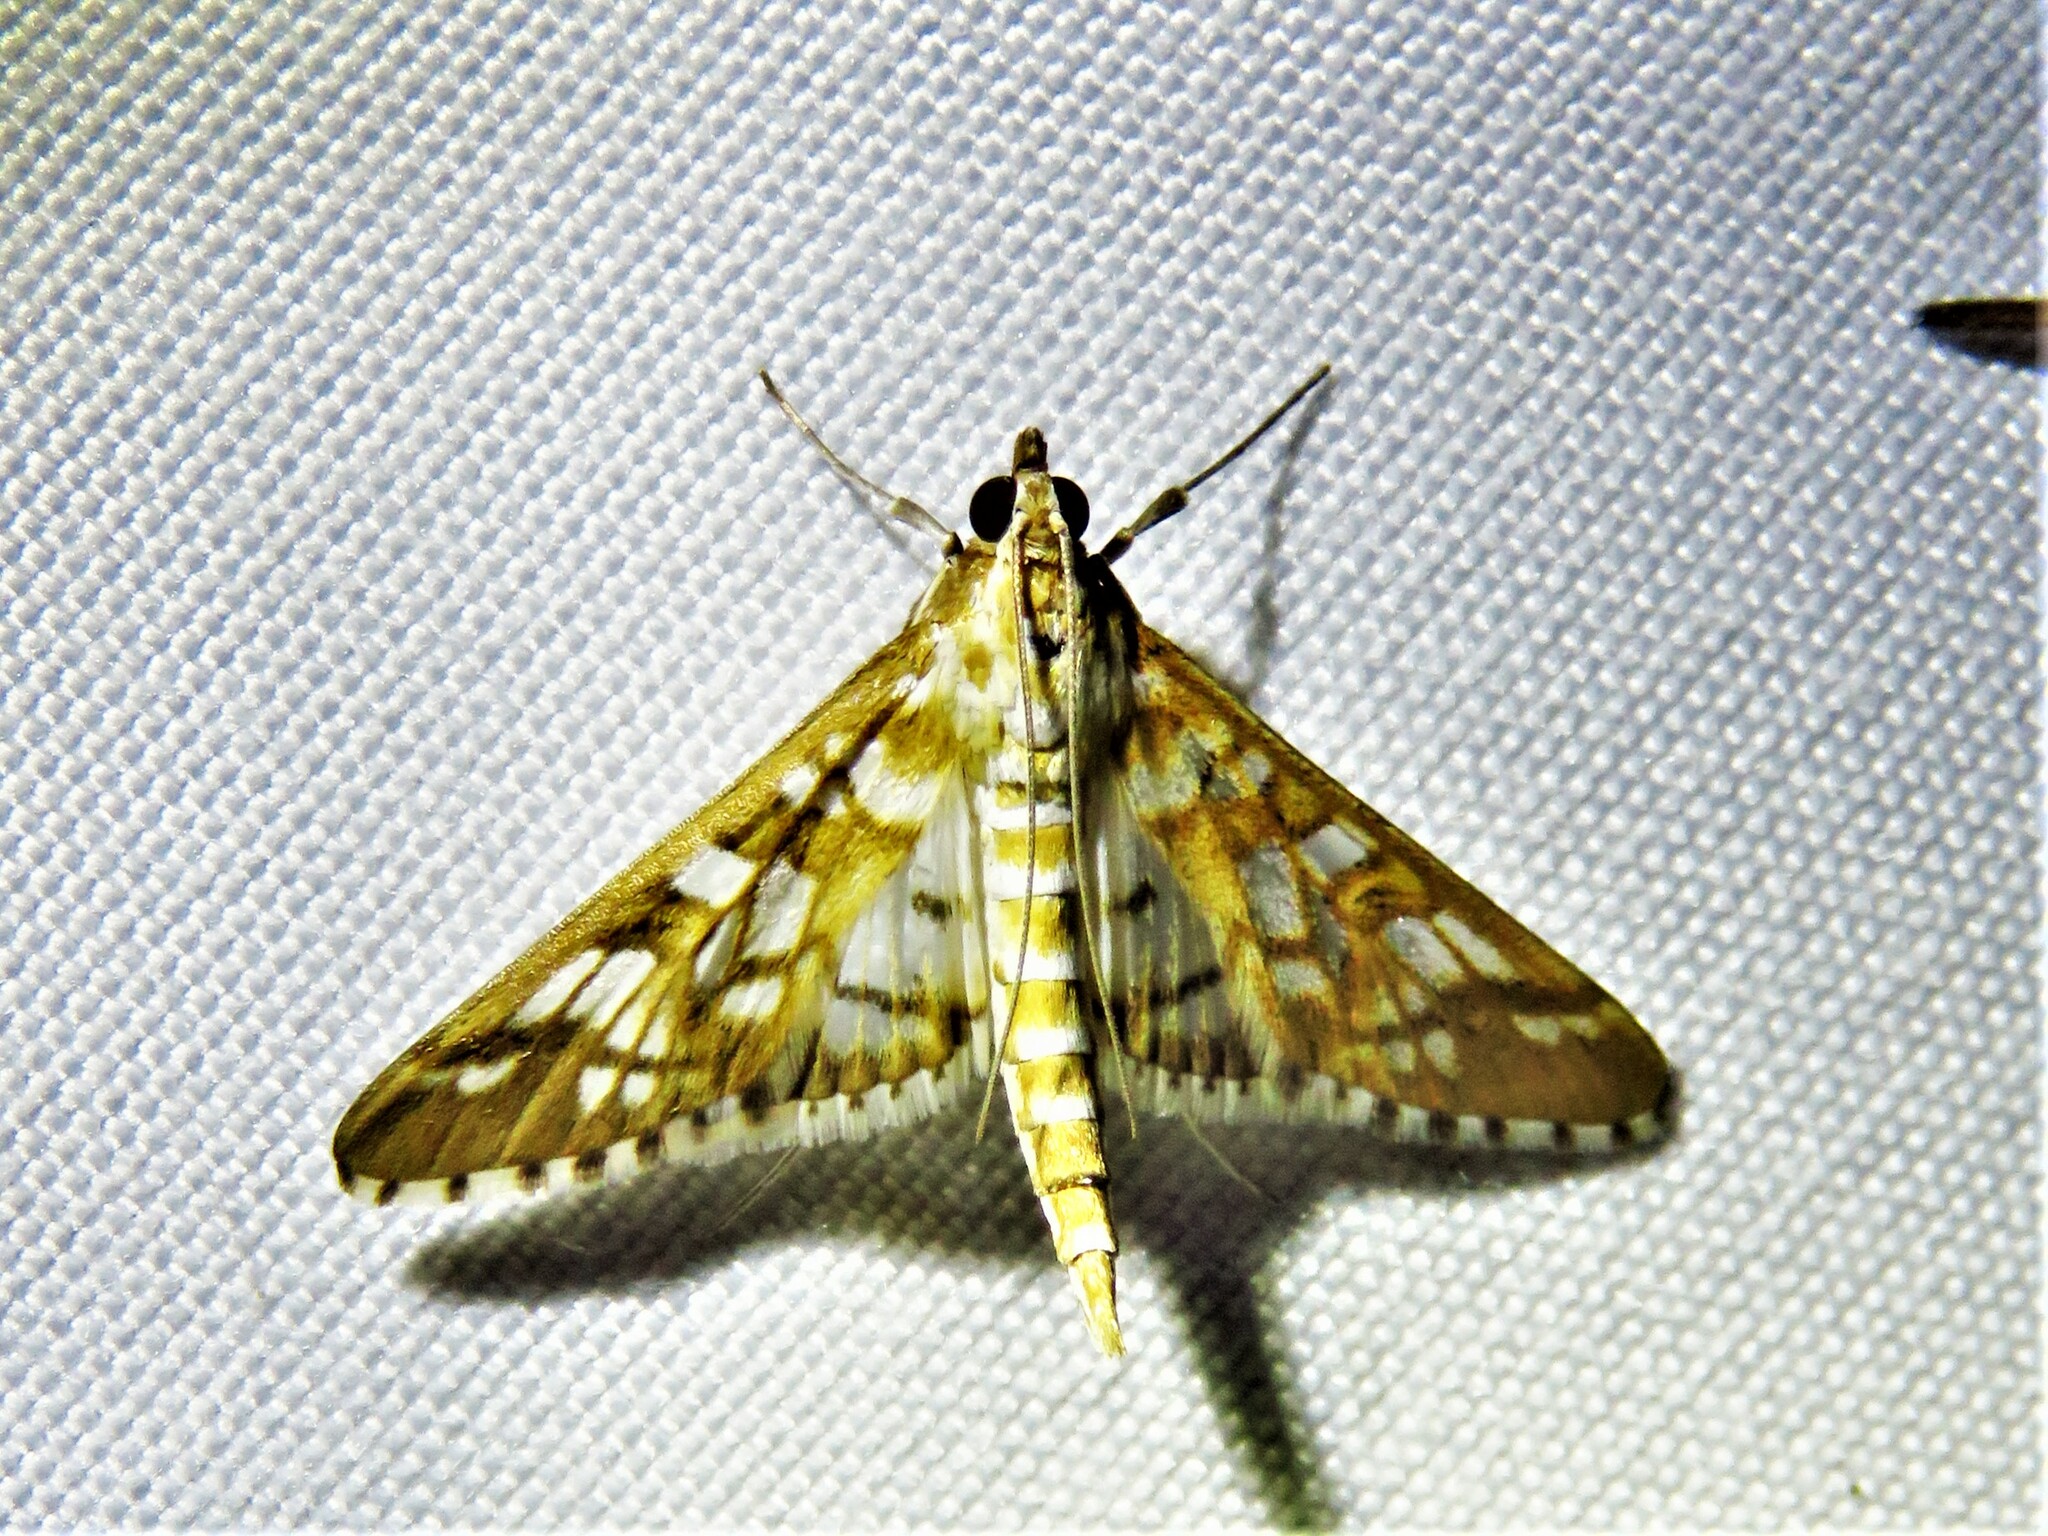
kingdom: Animalia
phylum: Arthropoda
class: Insecta
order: Lepidoptera
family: Crambidae
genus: Epipagis
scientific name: Epipagis fenestralis
